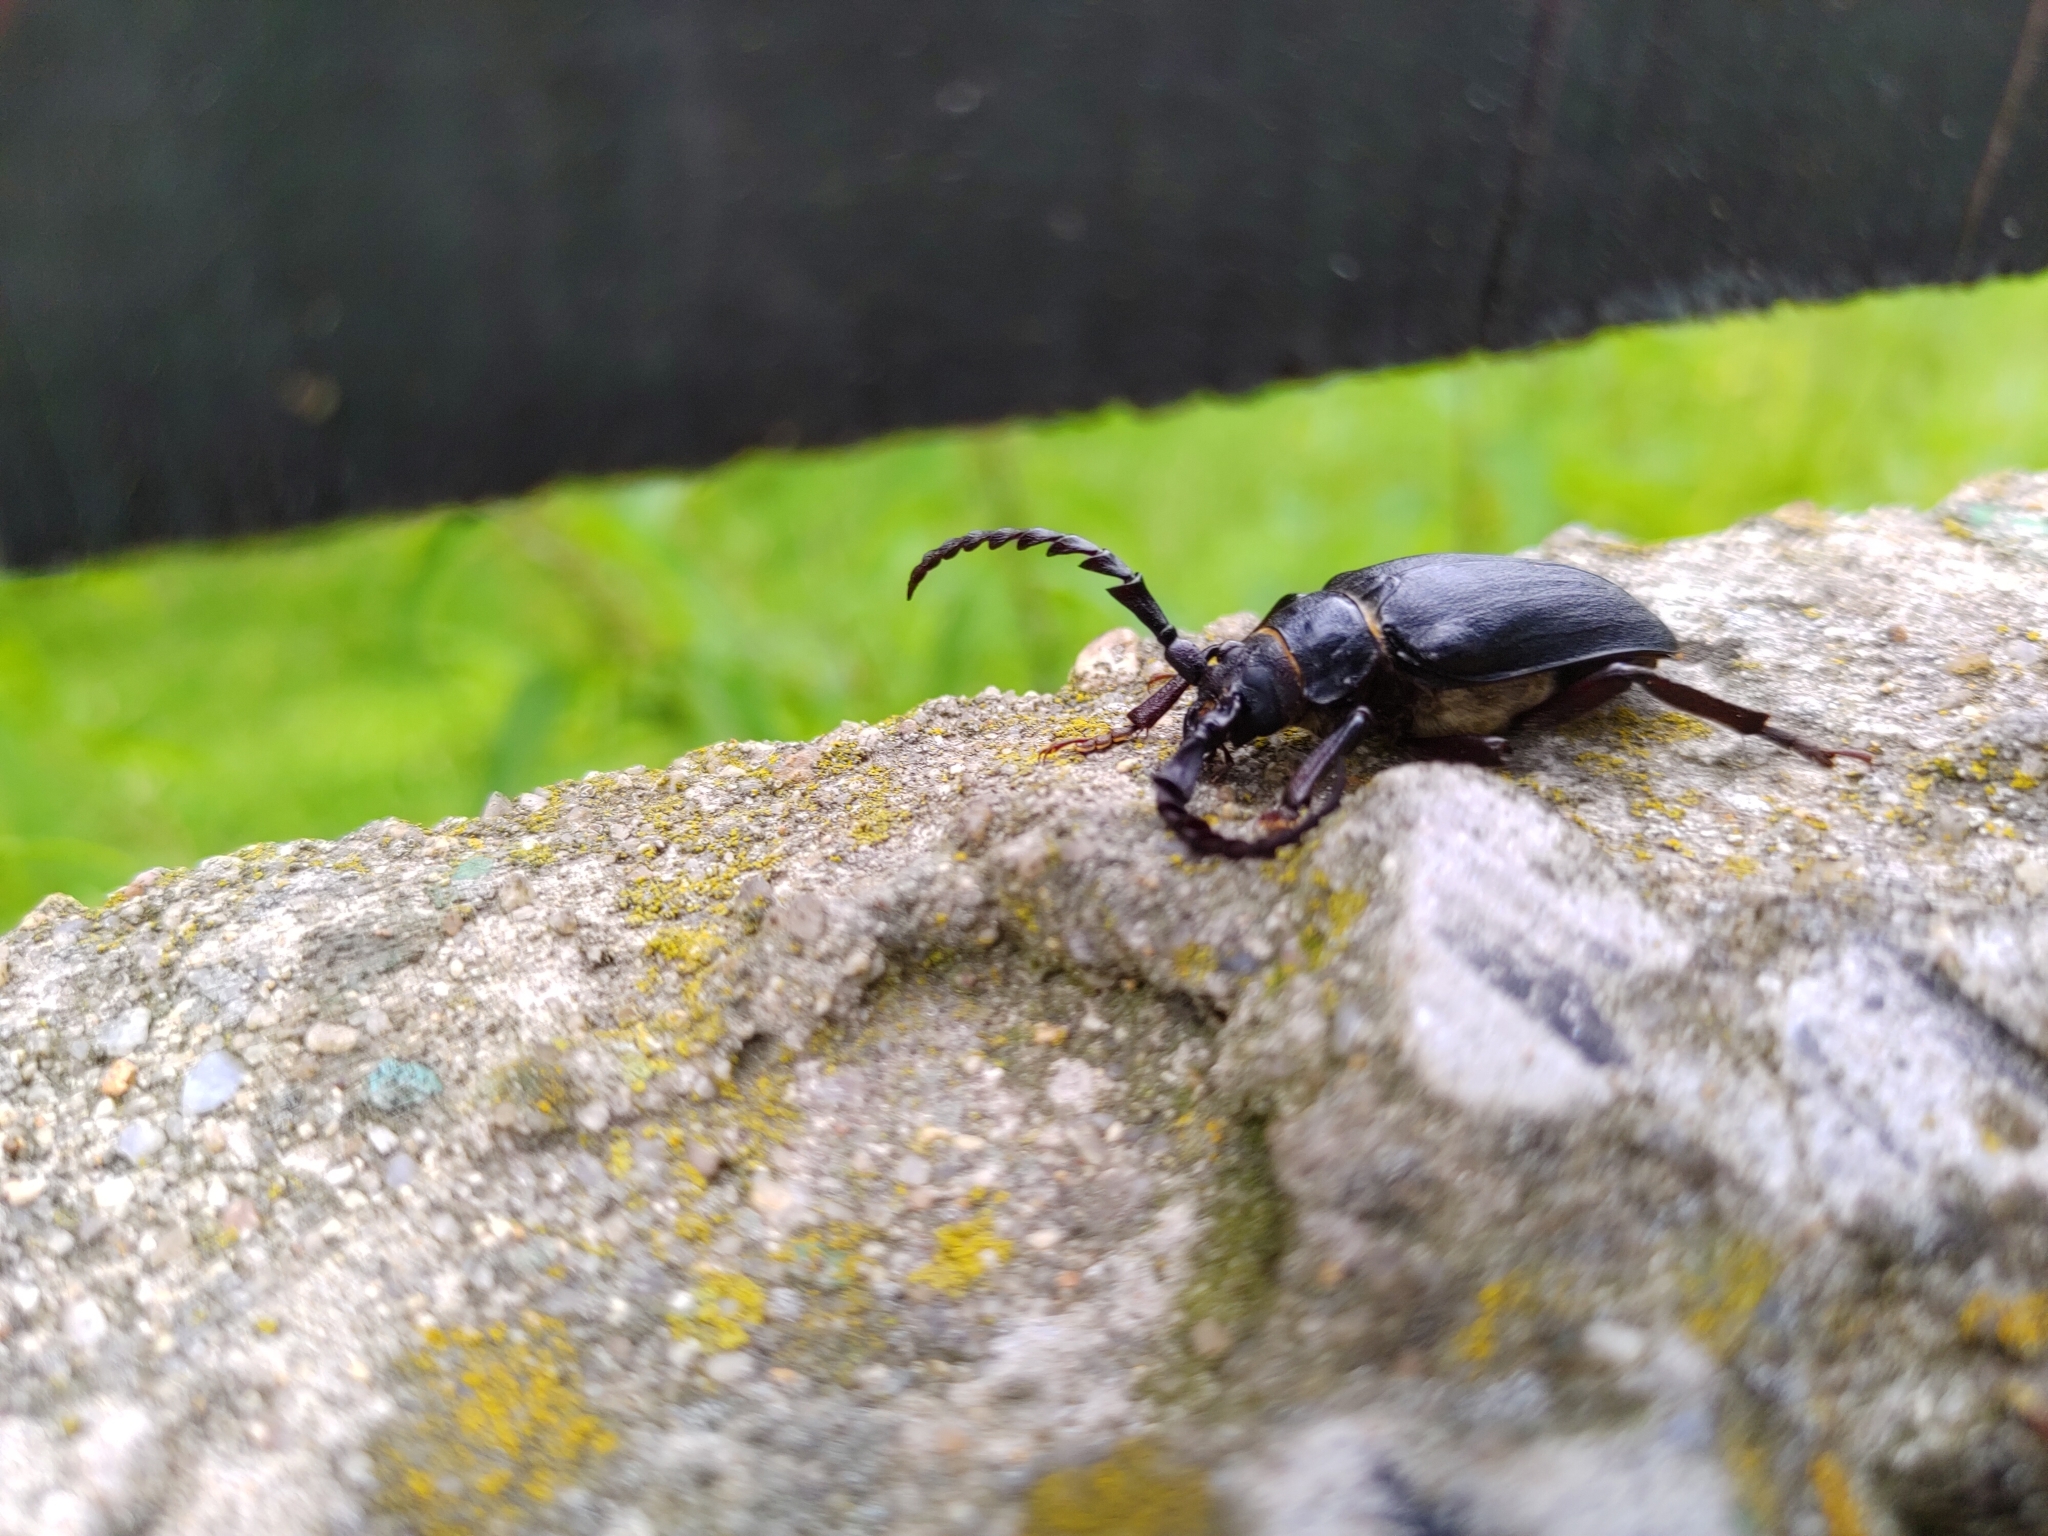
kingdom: Animalia
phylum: Arthropoda
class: Insecta
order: Coleoptera
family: Cerambycidae
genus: Prionus
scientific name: Prionus coriarius
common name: Tanner beetle
